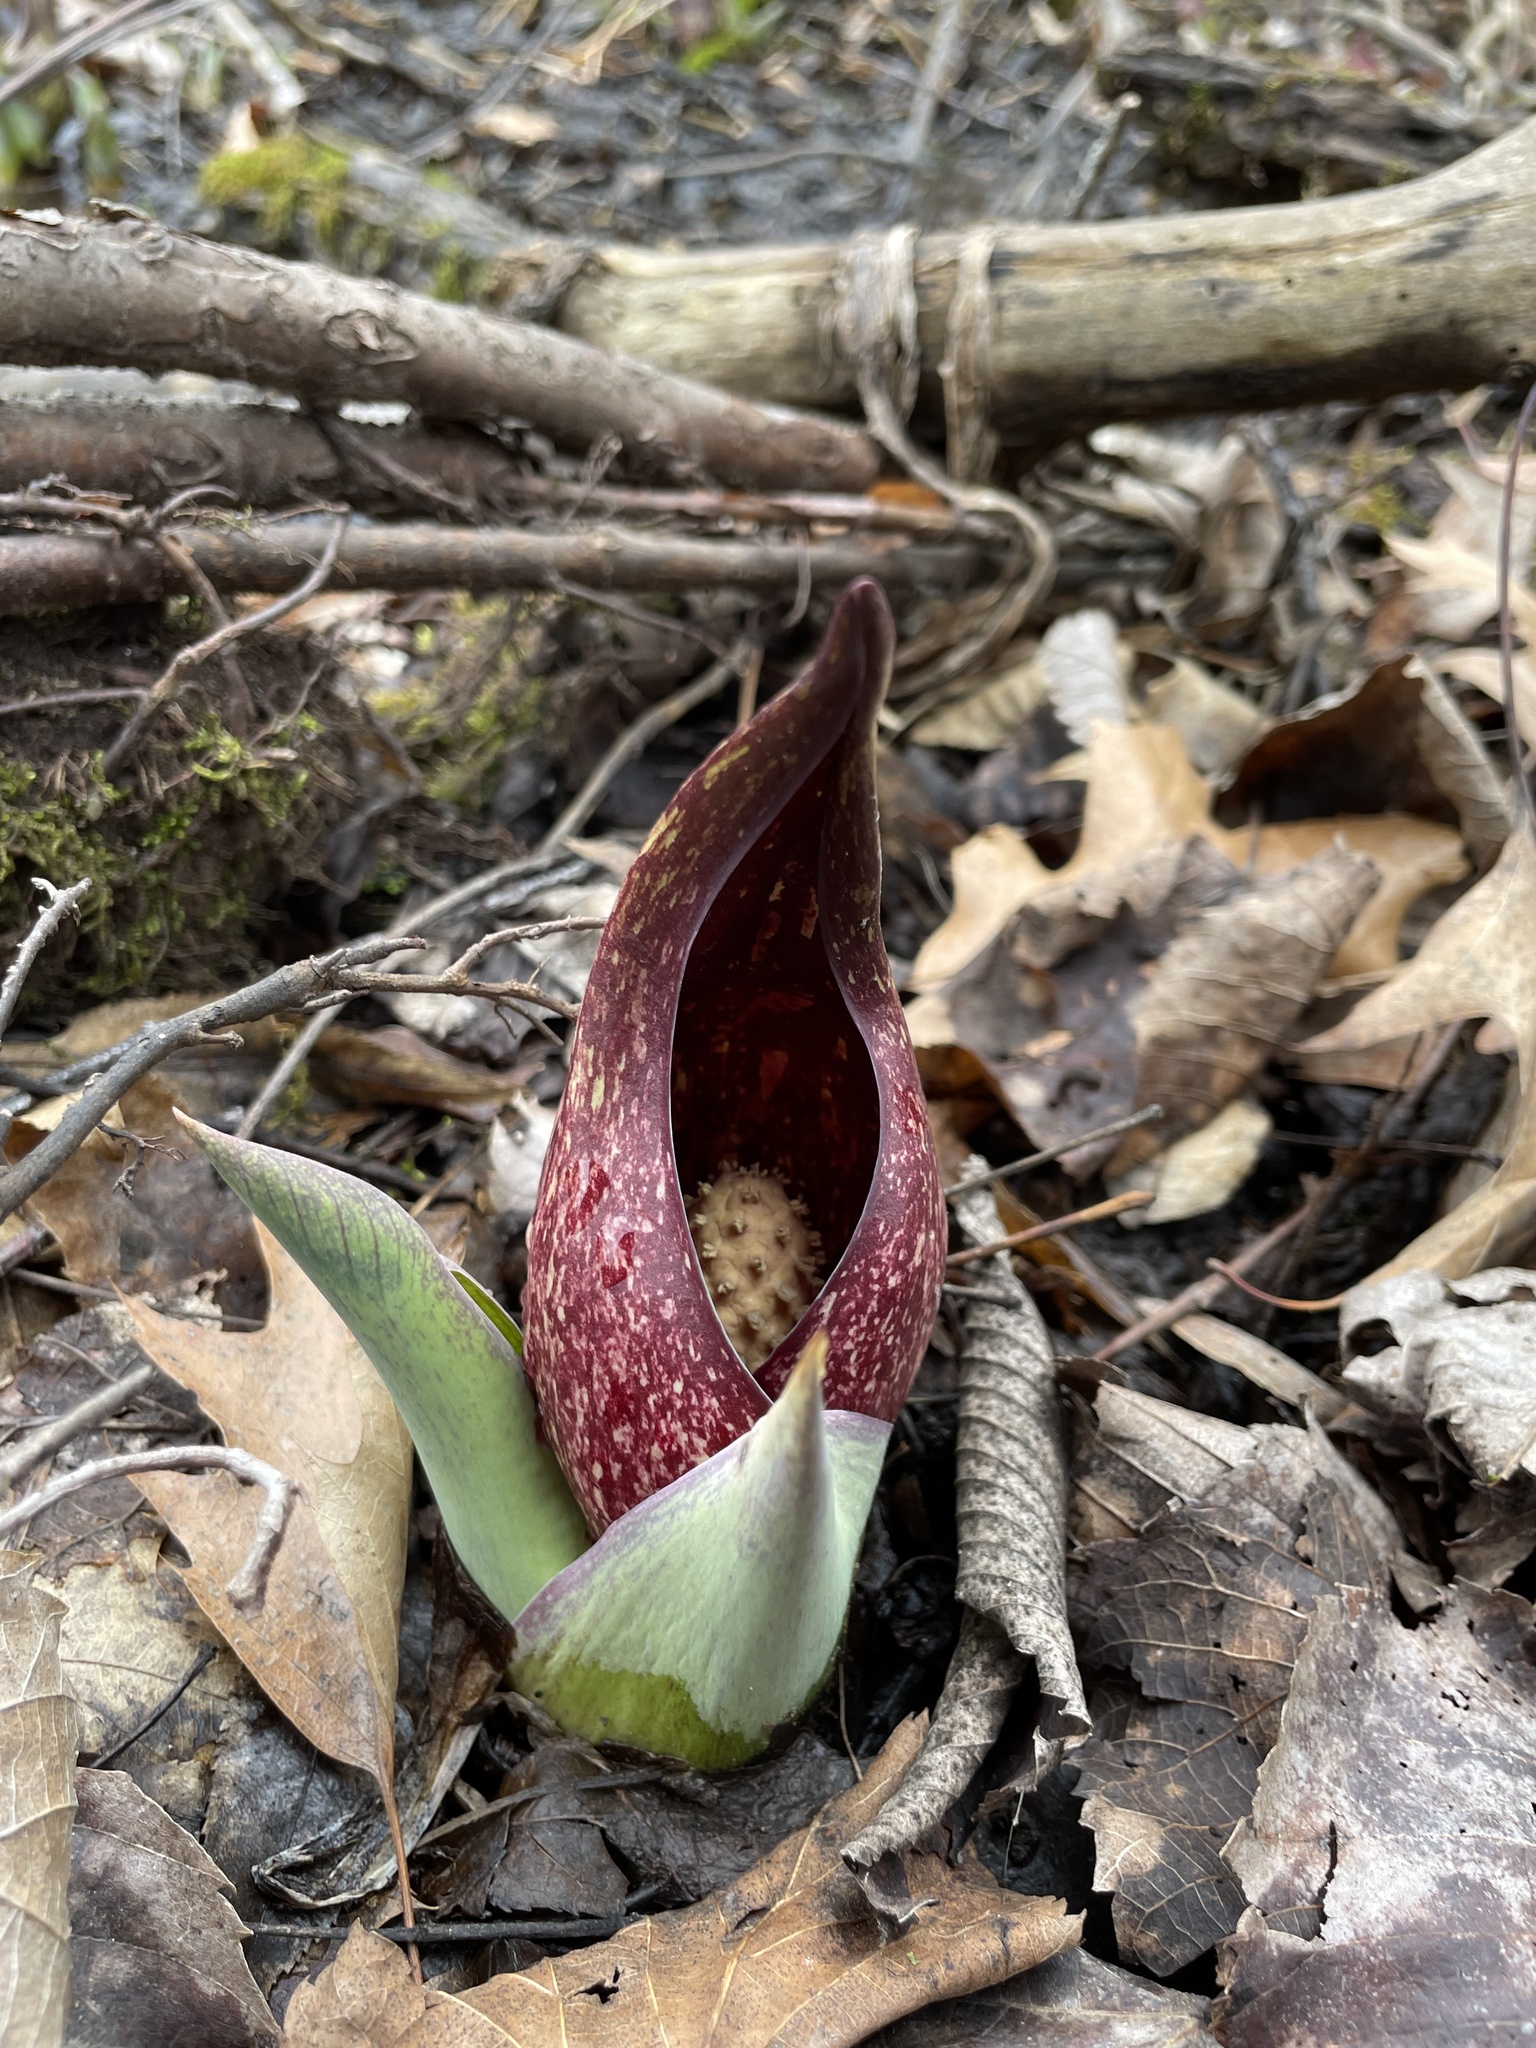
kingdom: Plantae
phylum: Tracheophyta
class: Liliopsida
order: Alismatales
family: Araceae
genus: Symplocarpus
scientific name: Symplocarpus foetidus
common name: Eastern skunk cabbage
